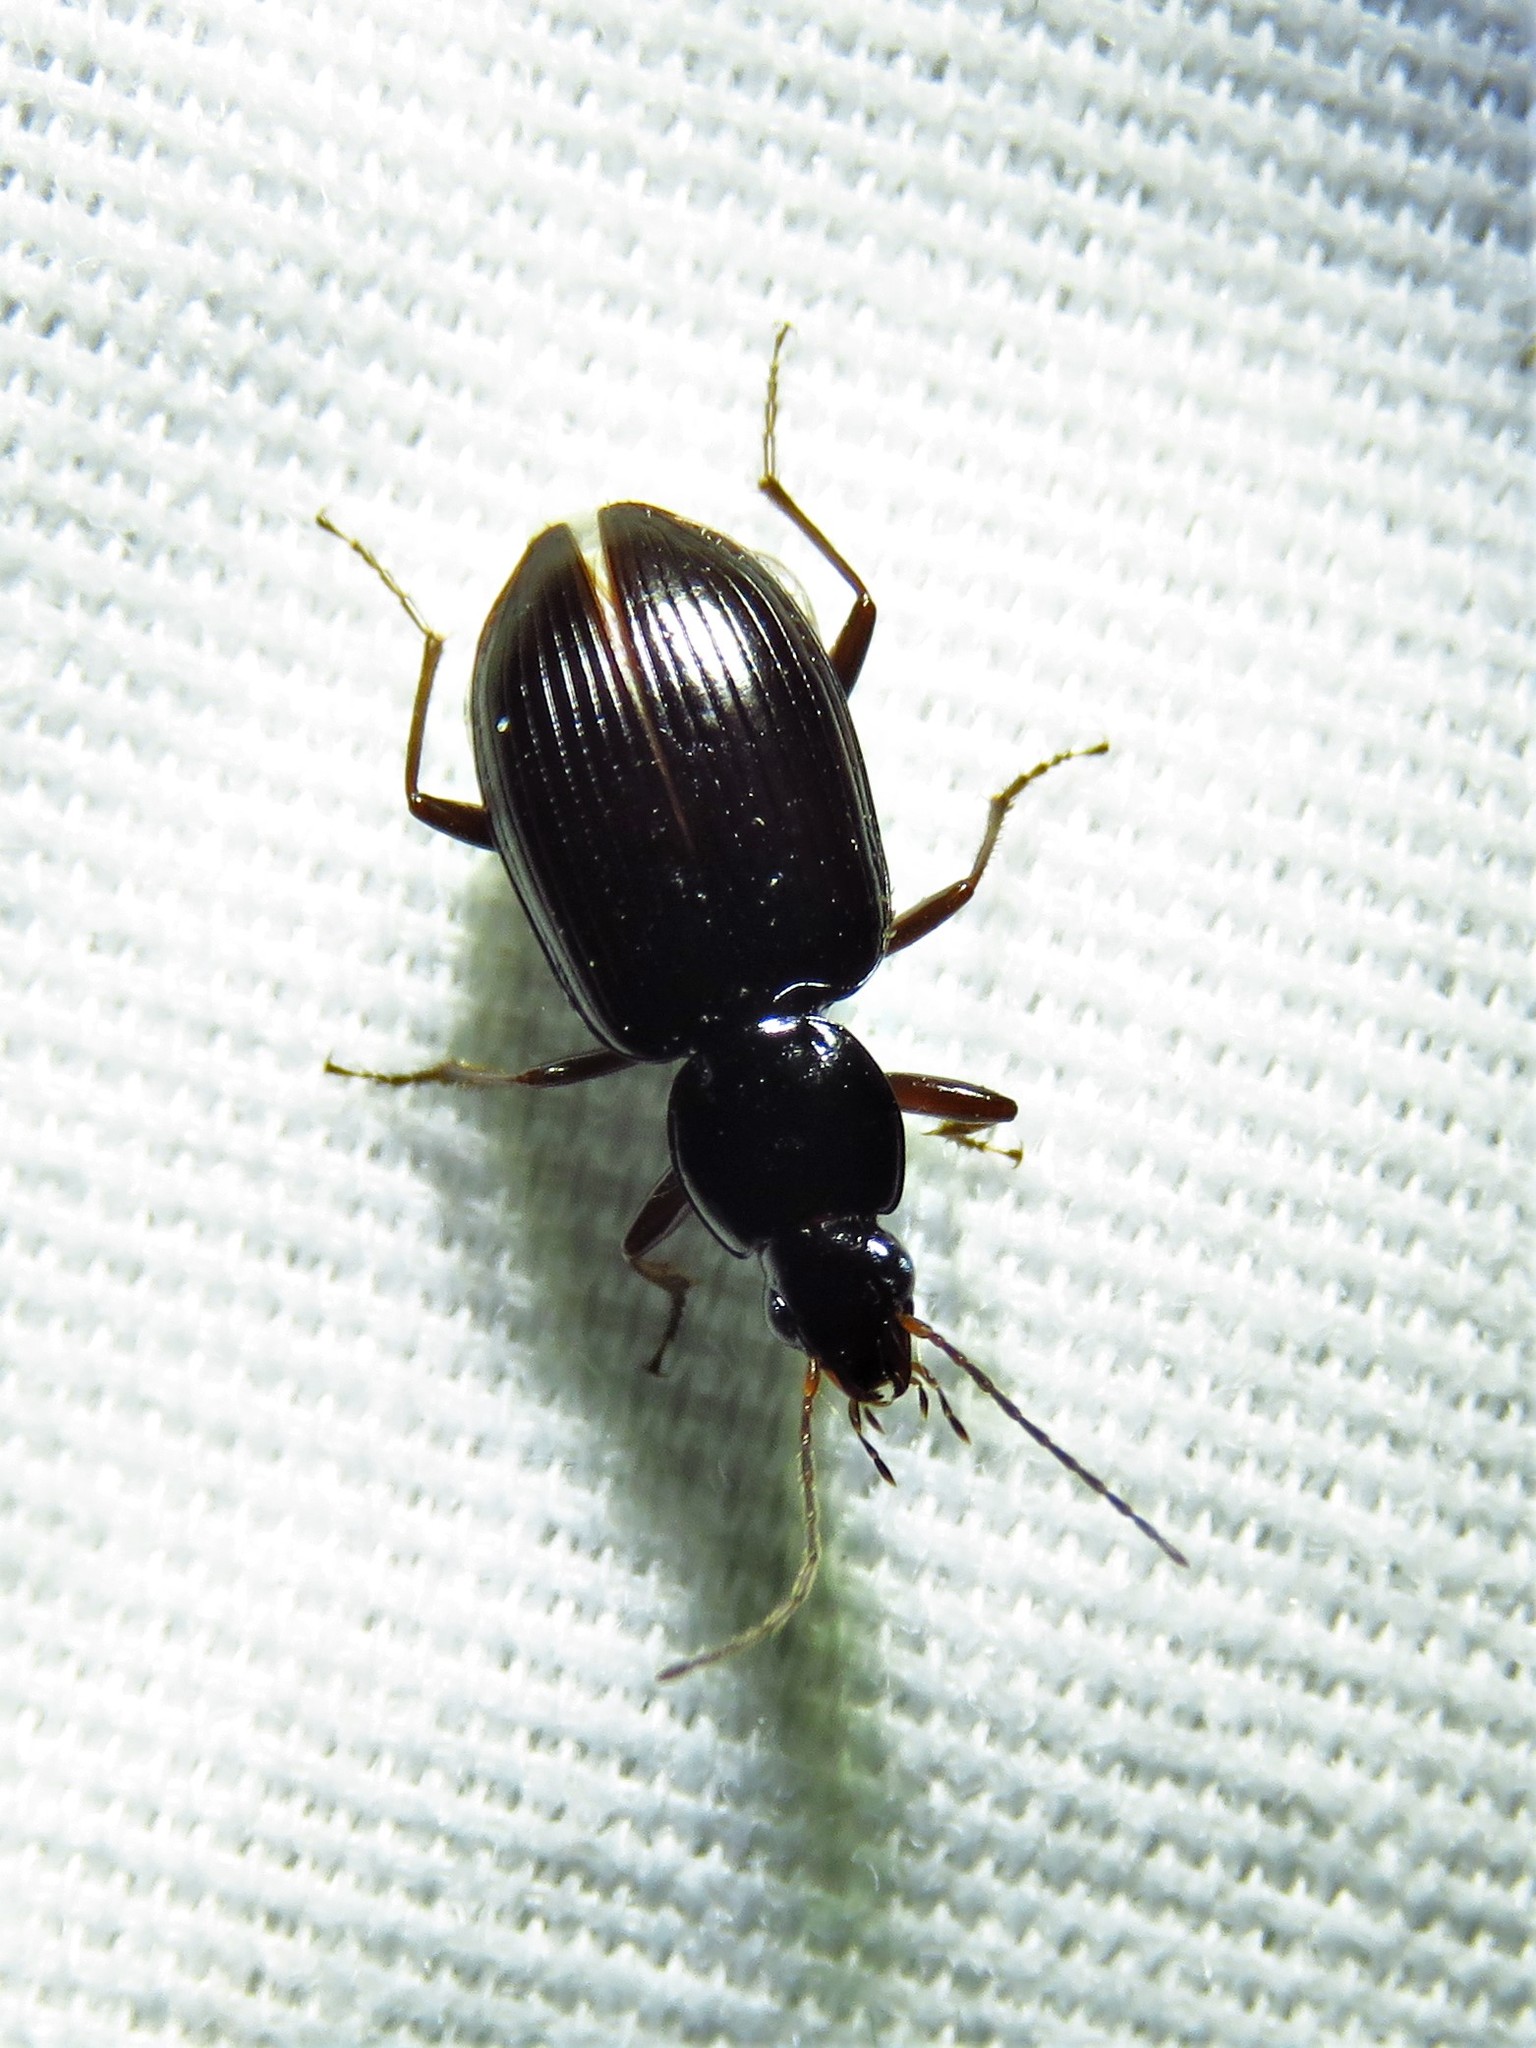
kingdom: Animalia
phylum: Arthropoda
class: Insecta
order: Coleoptera
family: Carabidae
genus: Agonum
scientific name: Agonum punctiforme
